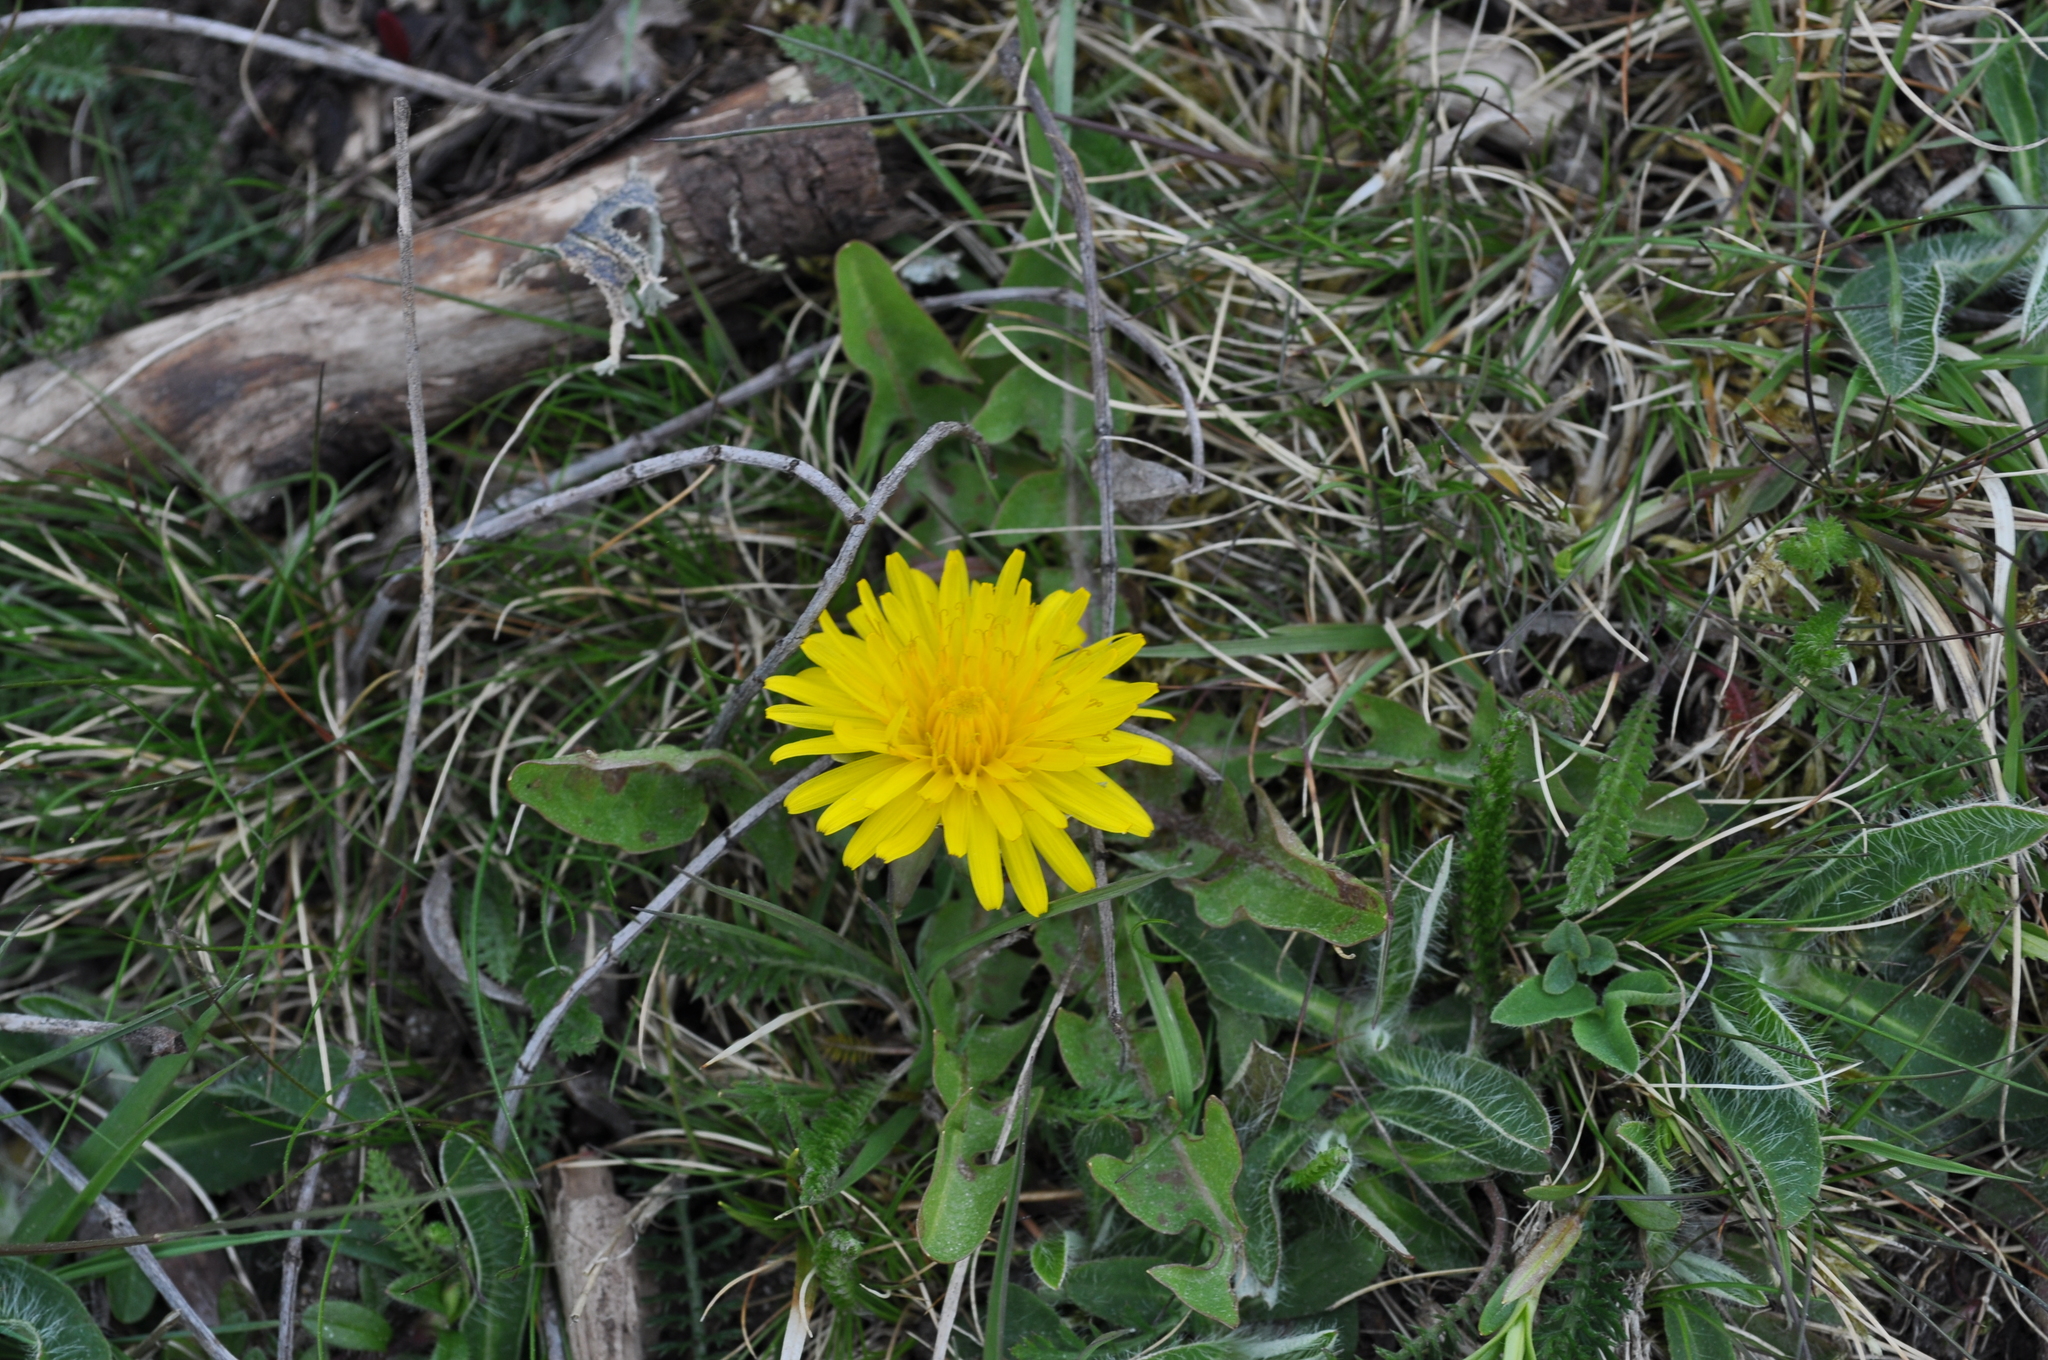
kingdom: Plantae
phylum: Tracheophyta
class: Magnoliopsida
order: Asterales
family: Asteraceae
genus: Taraxacum
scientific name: Taraxacum officinale
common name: Common dandelion
